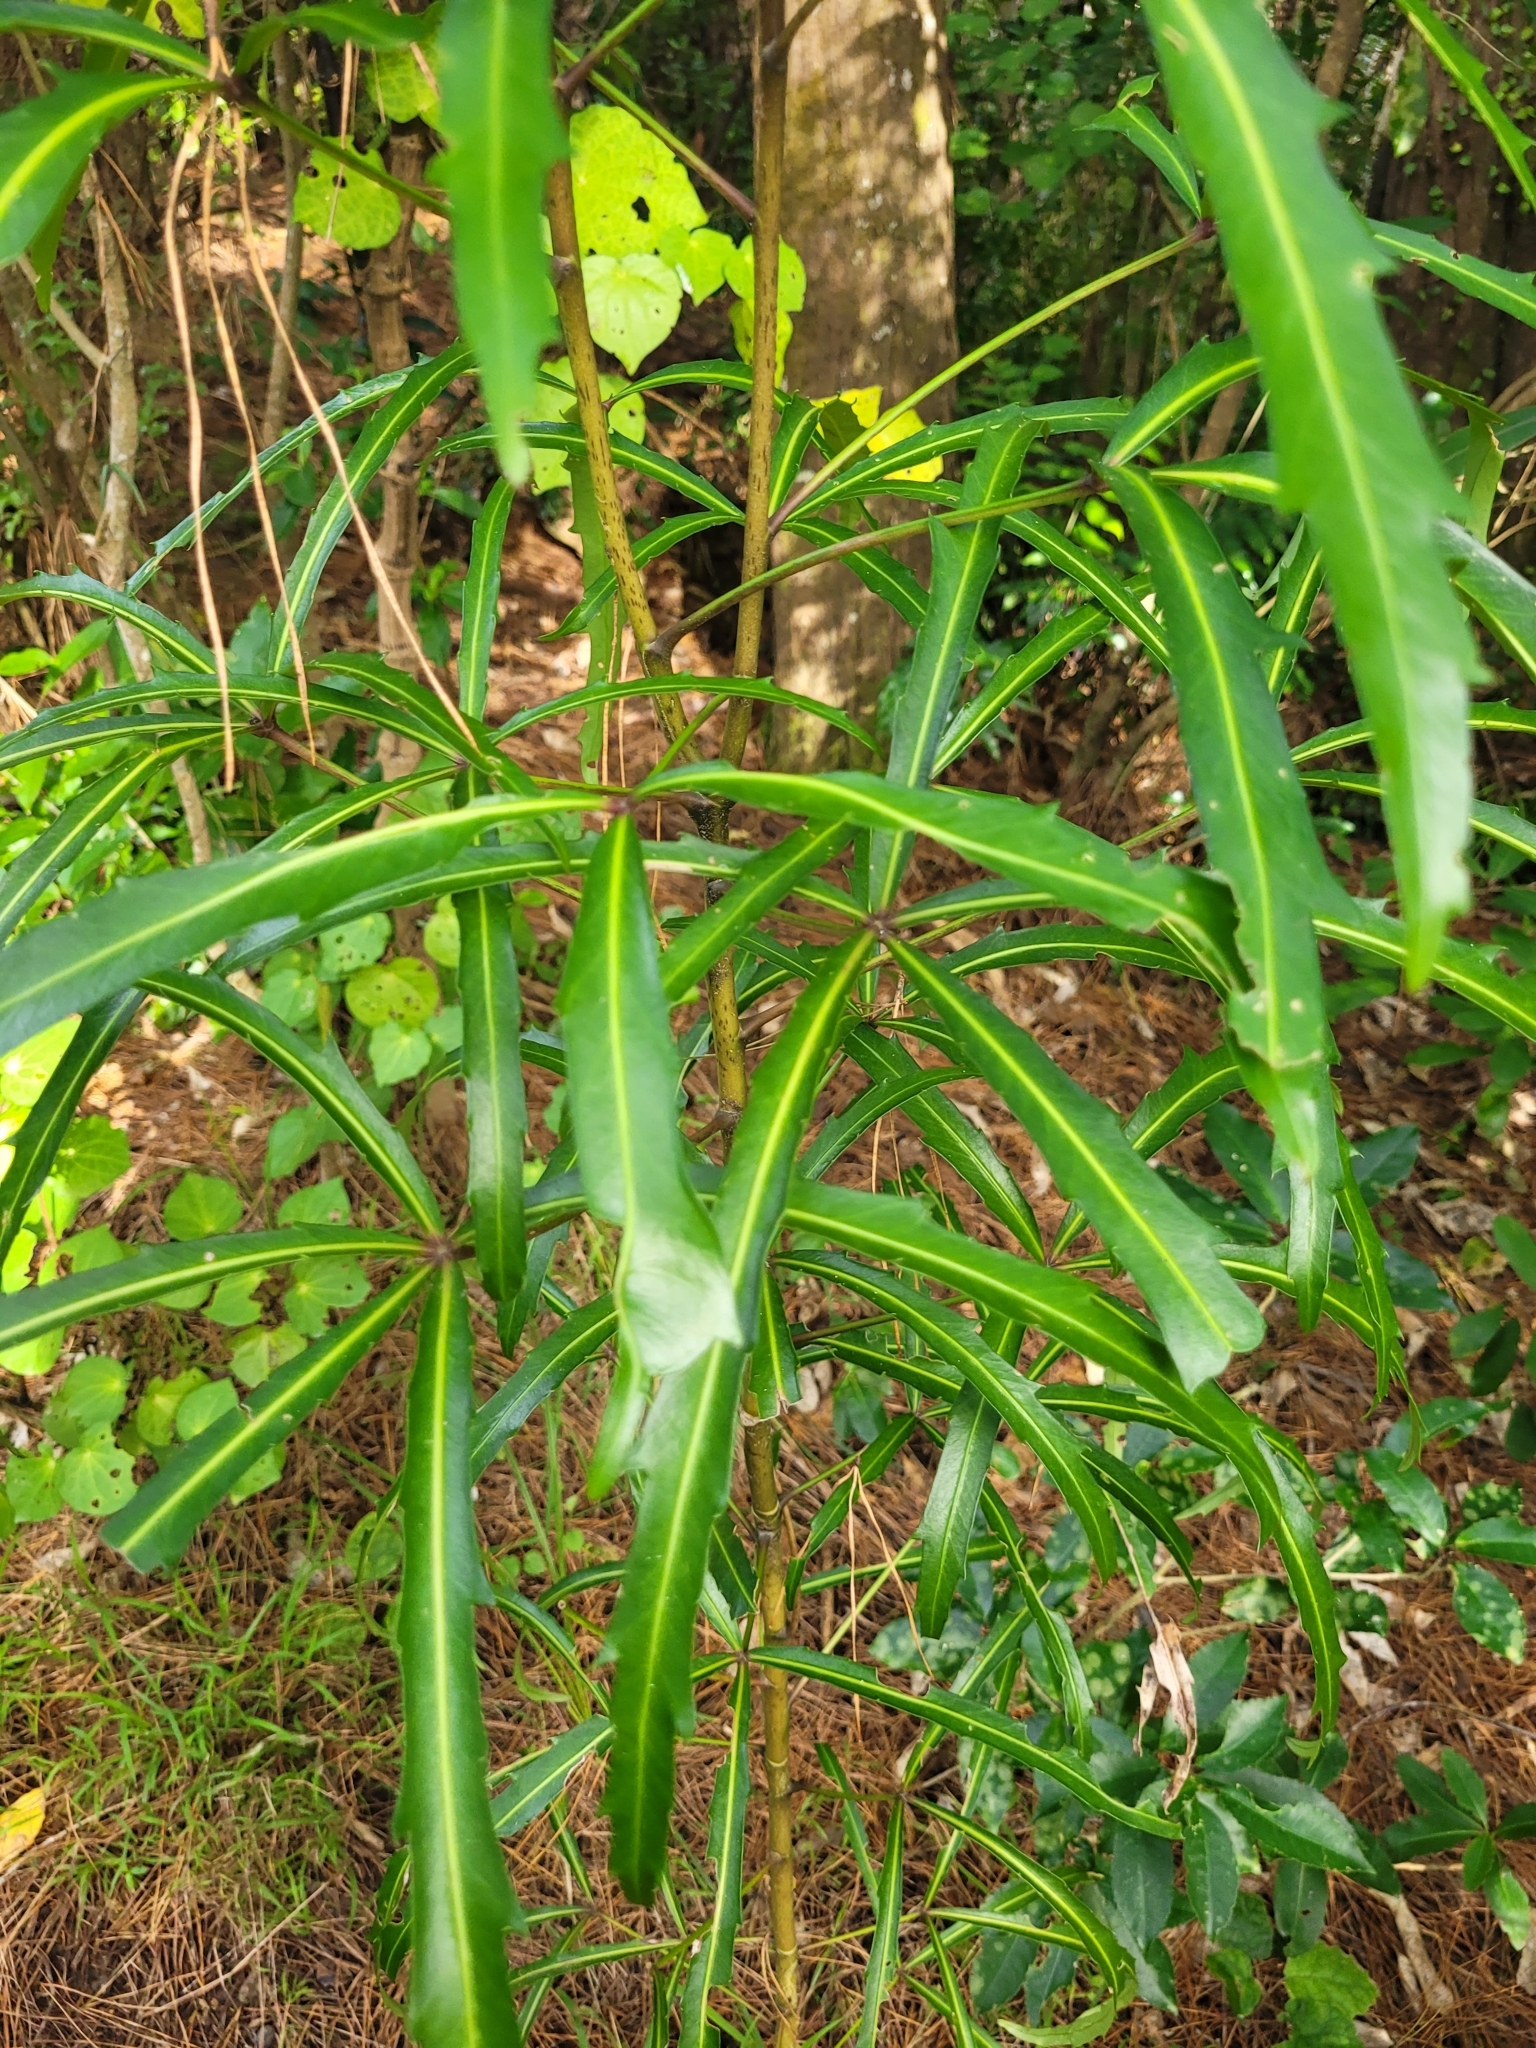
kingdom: Plantae
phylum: Tracheophyta
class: Magnoliopsida
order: Apiales
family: Araliaceae
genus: Pseudopanax
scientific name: Pseudopanax
